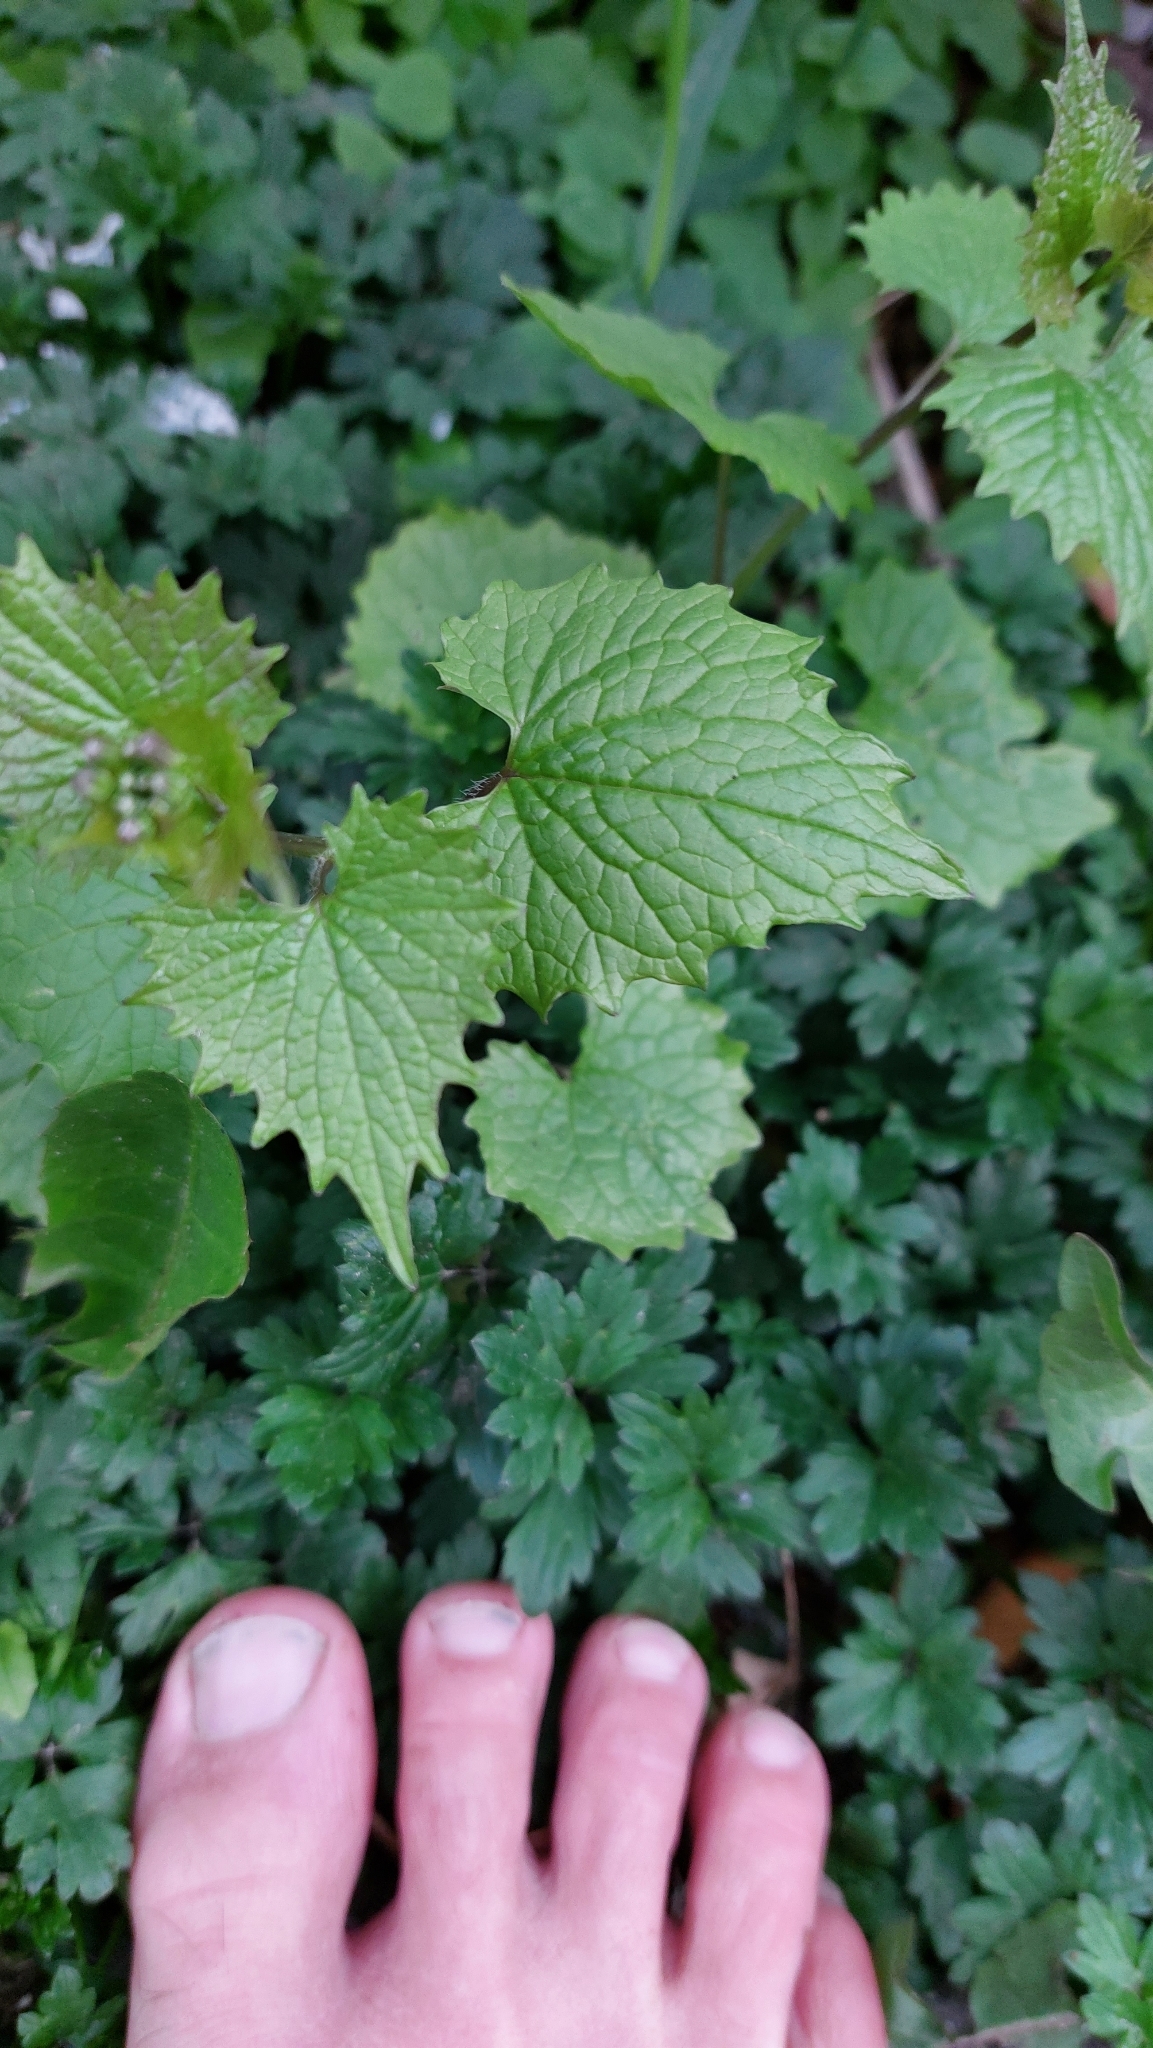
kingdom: Plantae
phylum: Tracheophyta
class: Magnoliopsida
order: Brassicales
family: Brassicaceae
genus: Alliaria
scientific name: Alliaria petiolata
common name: Garlic mustard
